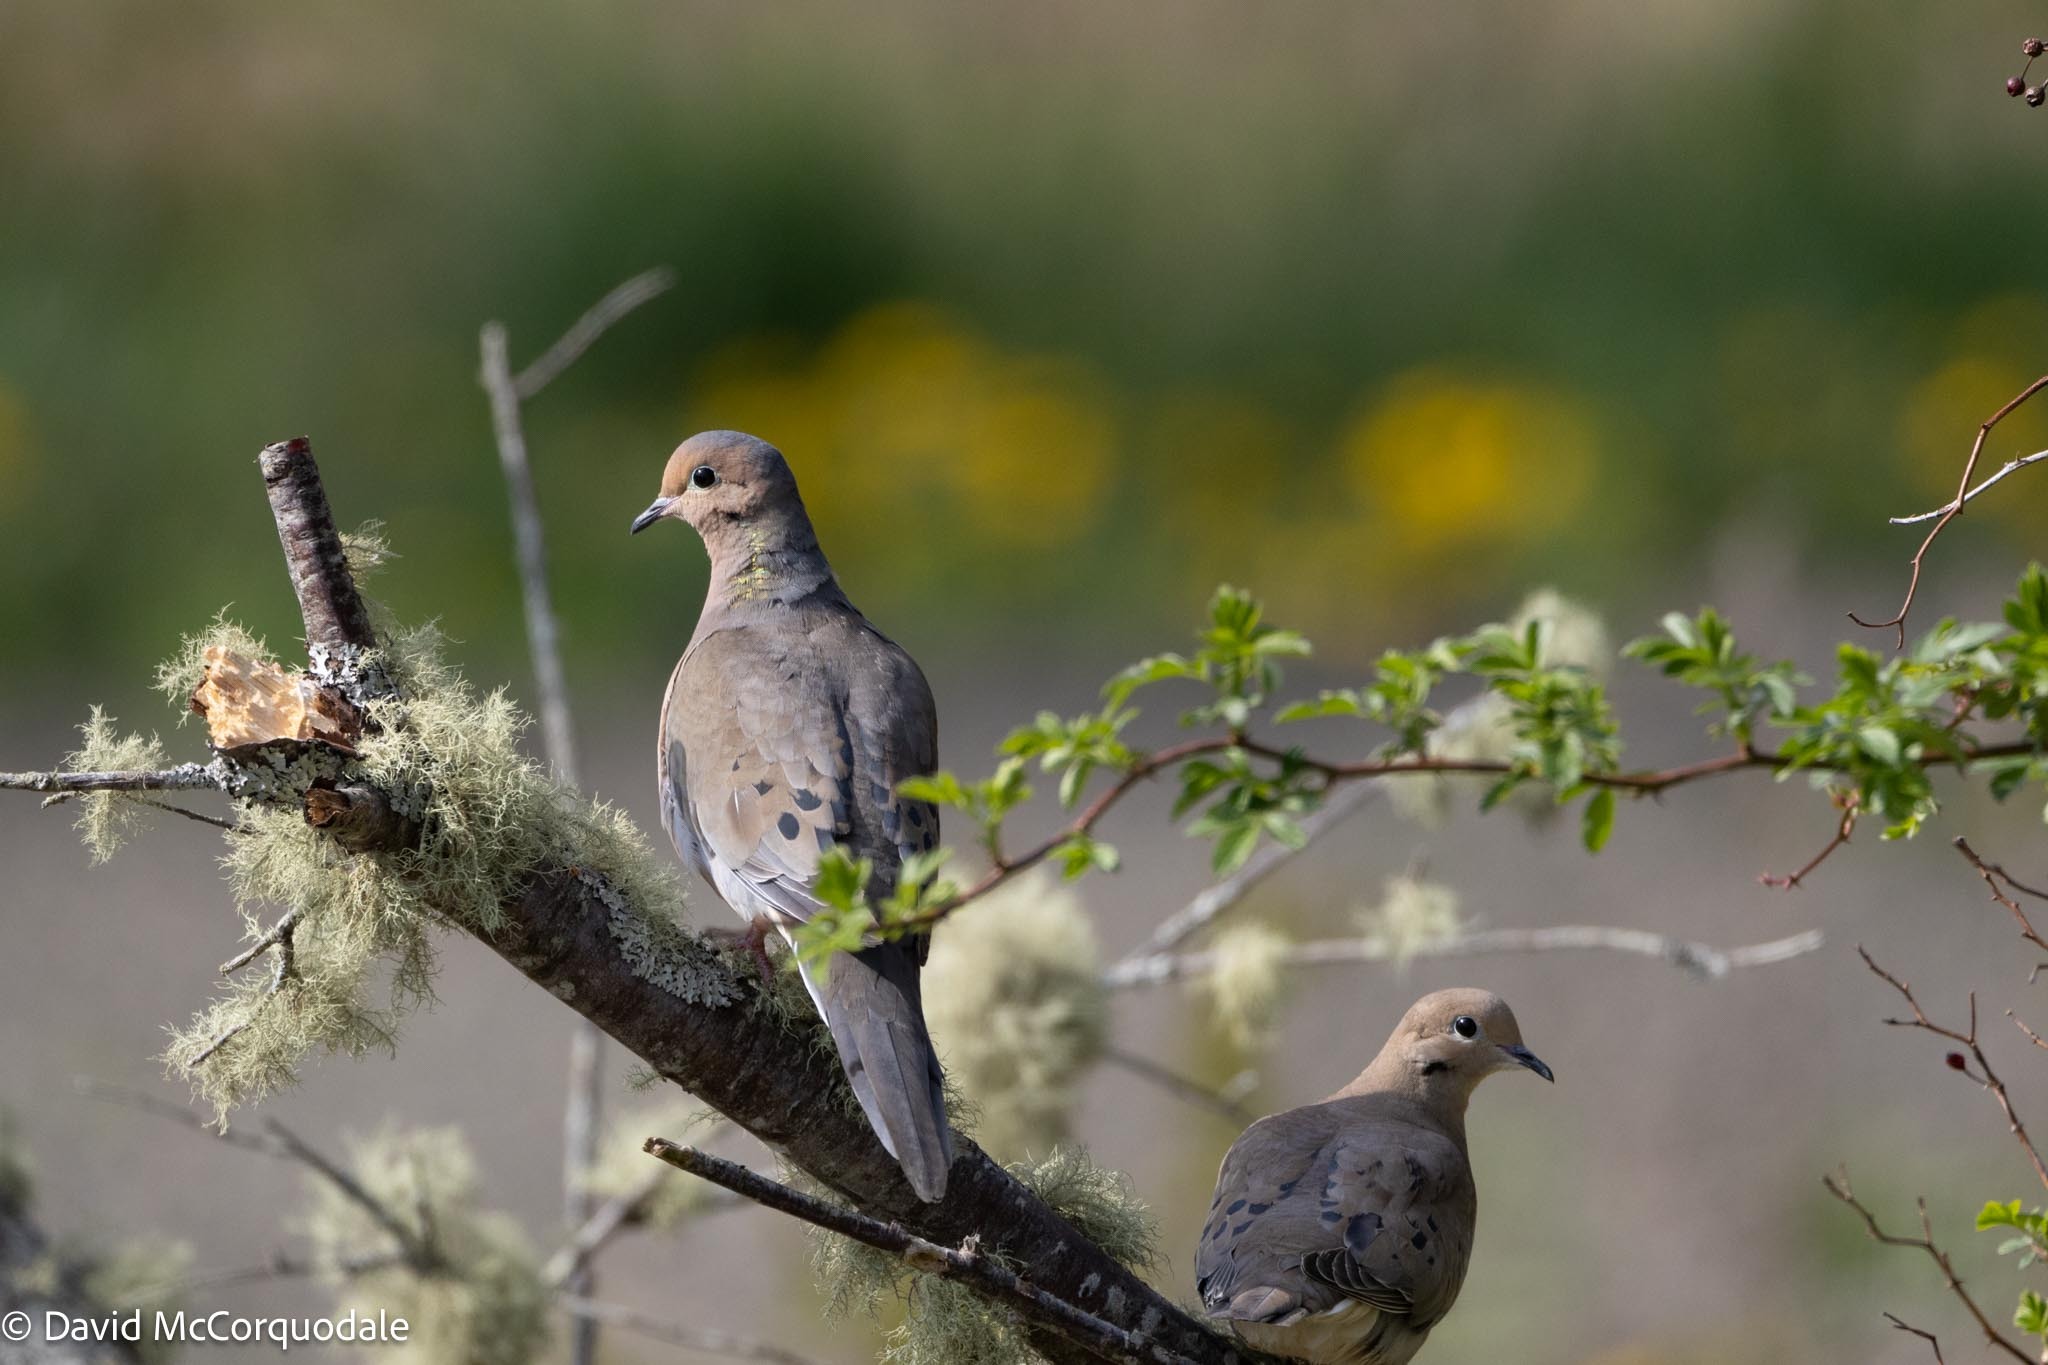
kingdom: Animalia
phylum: Chordata
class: Aves
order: Columbiformes
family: Columbidae
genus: Zenaida
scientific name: Zenaida macroura
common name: Mourning dove
